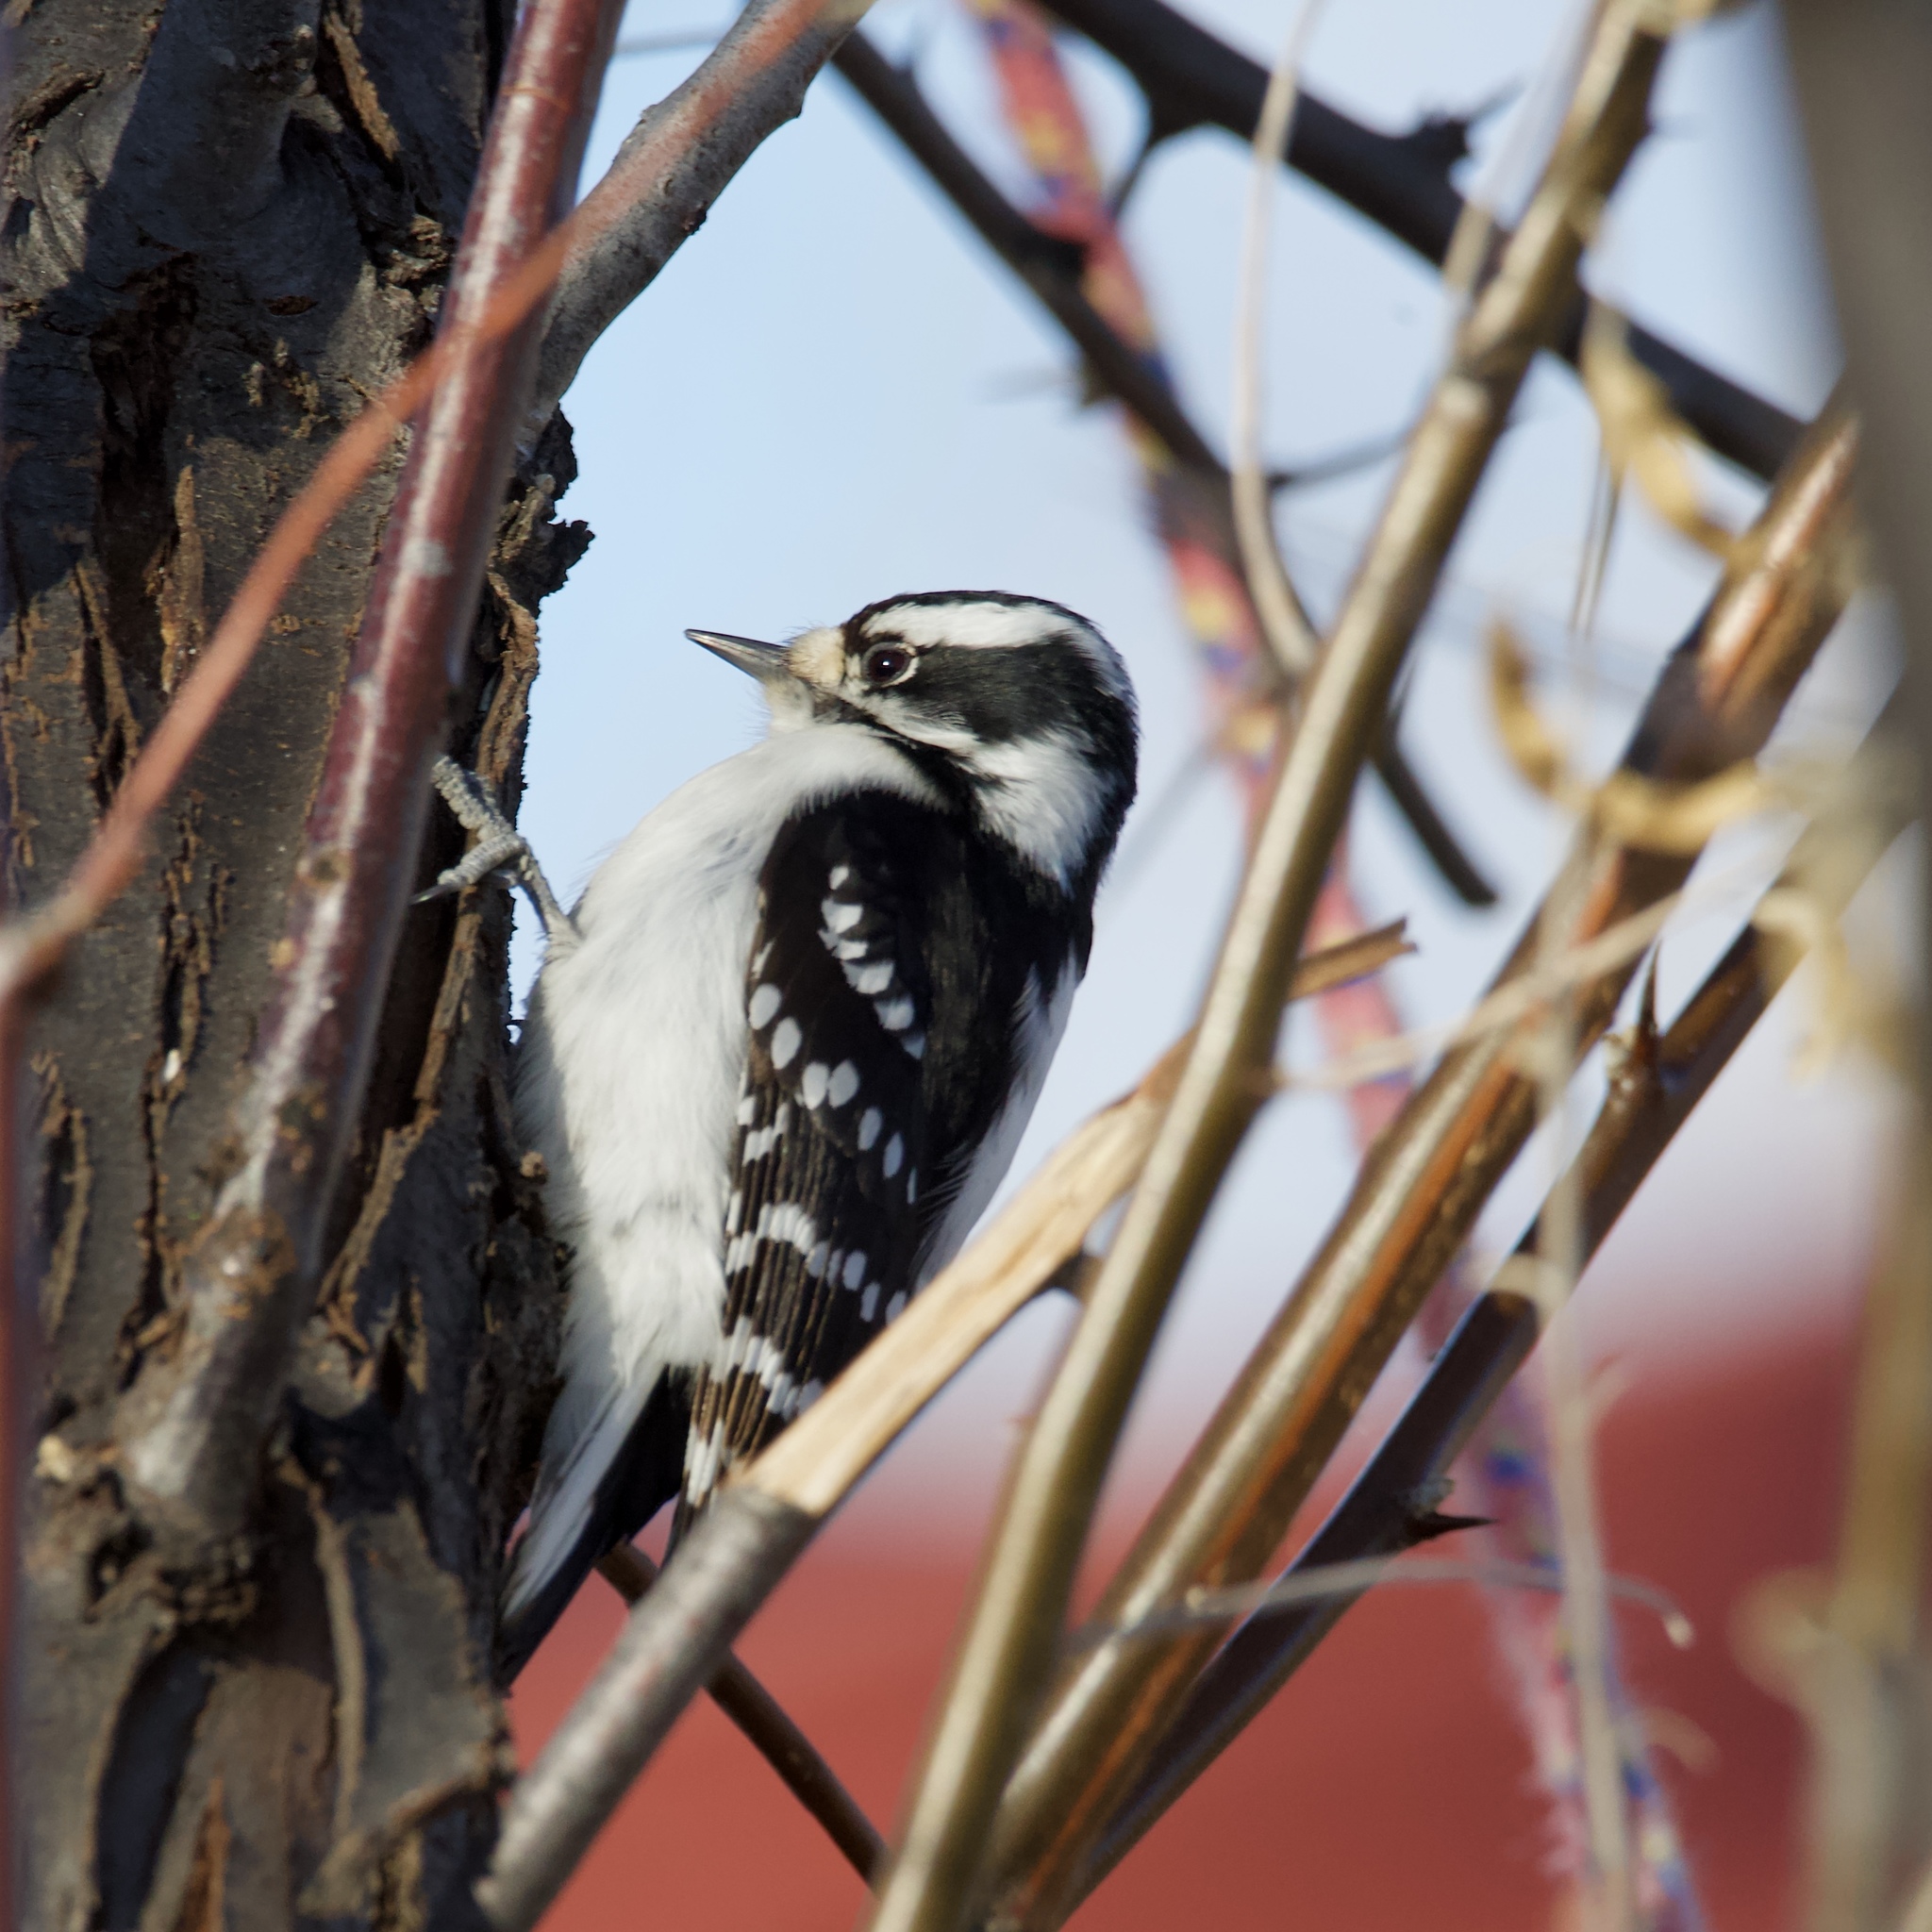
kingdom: Animalia
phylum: Chordata
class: Aves
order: Piciformes
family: Picidae
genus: Dryobates
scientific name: Dryobates pubescens
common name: Downy woodpecker
